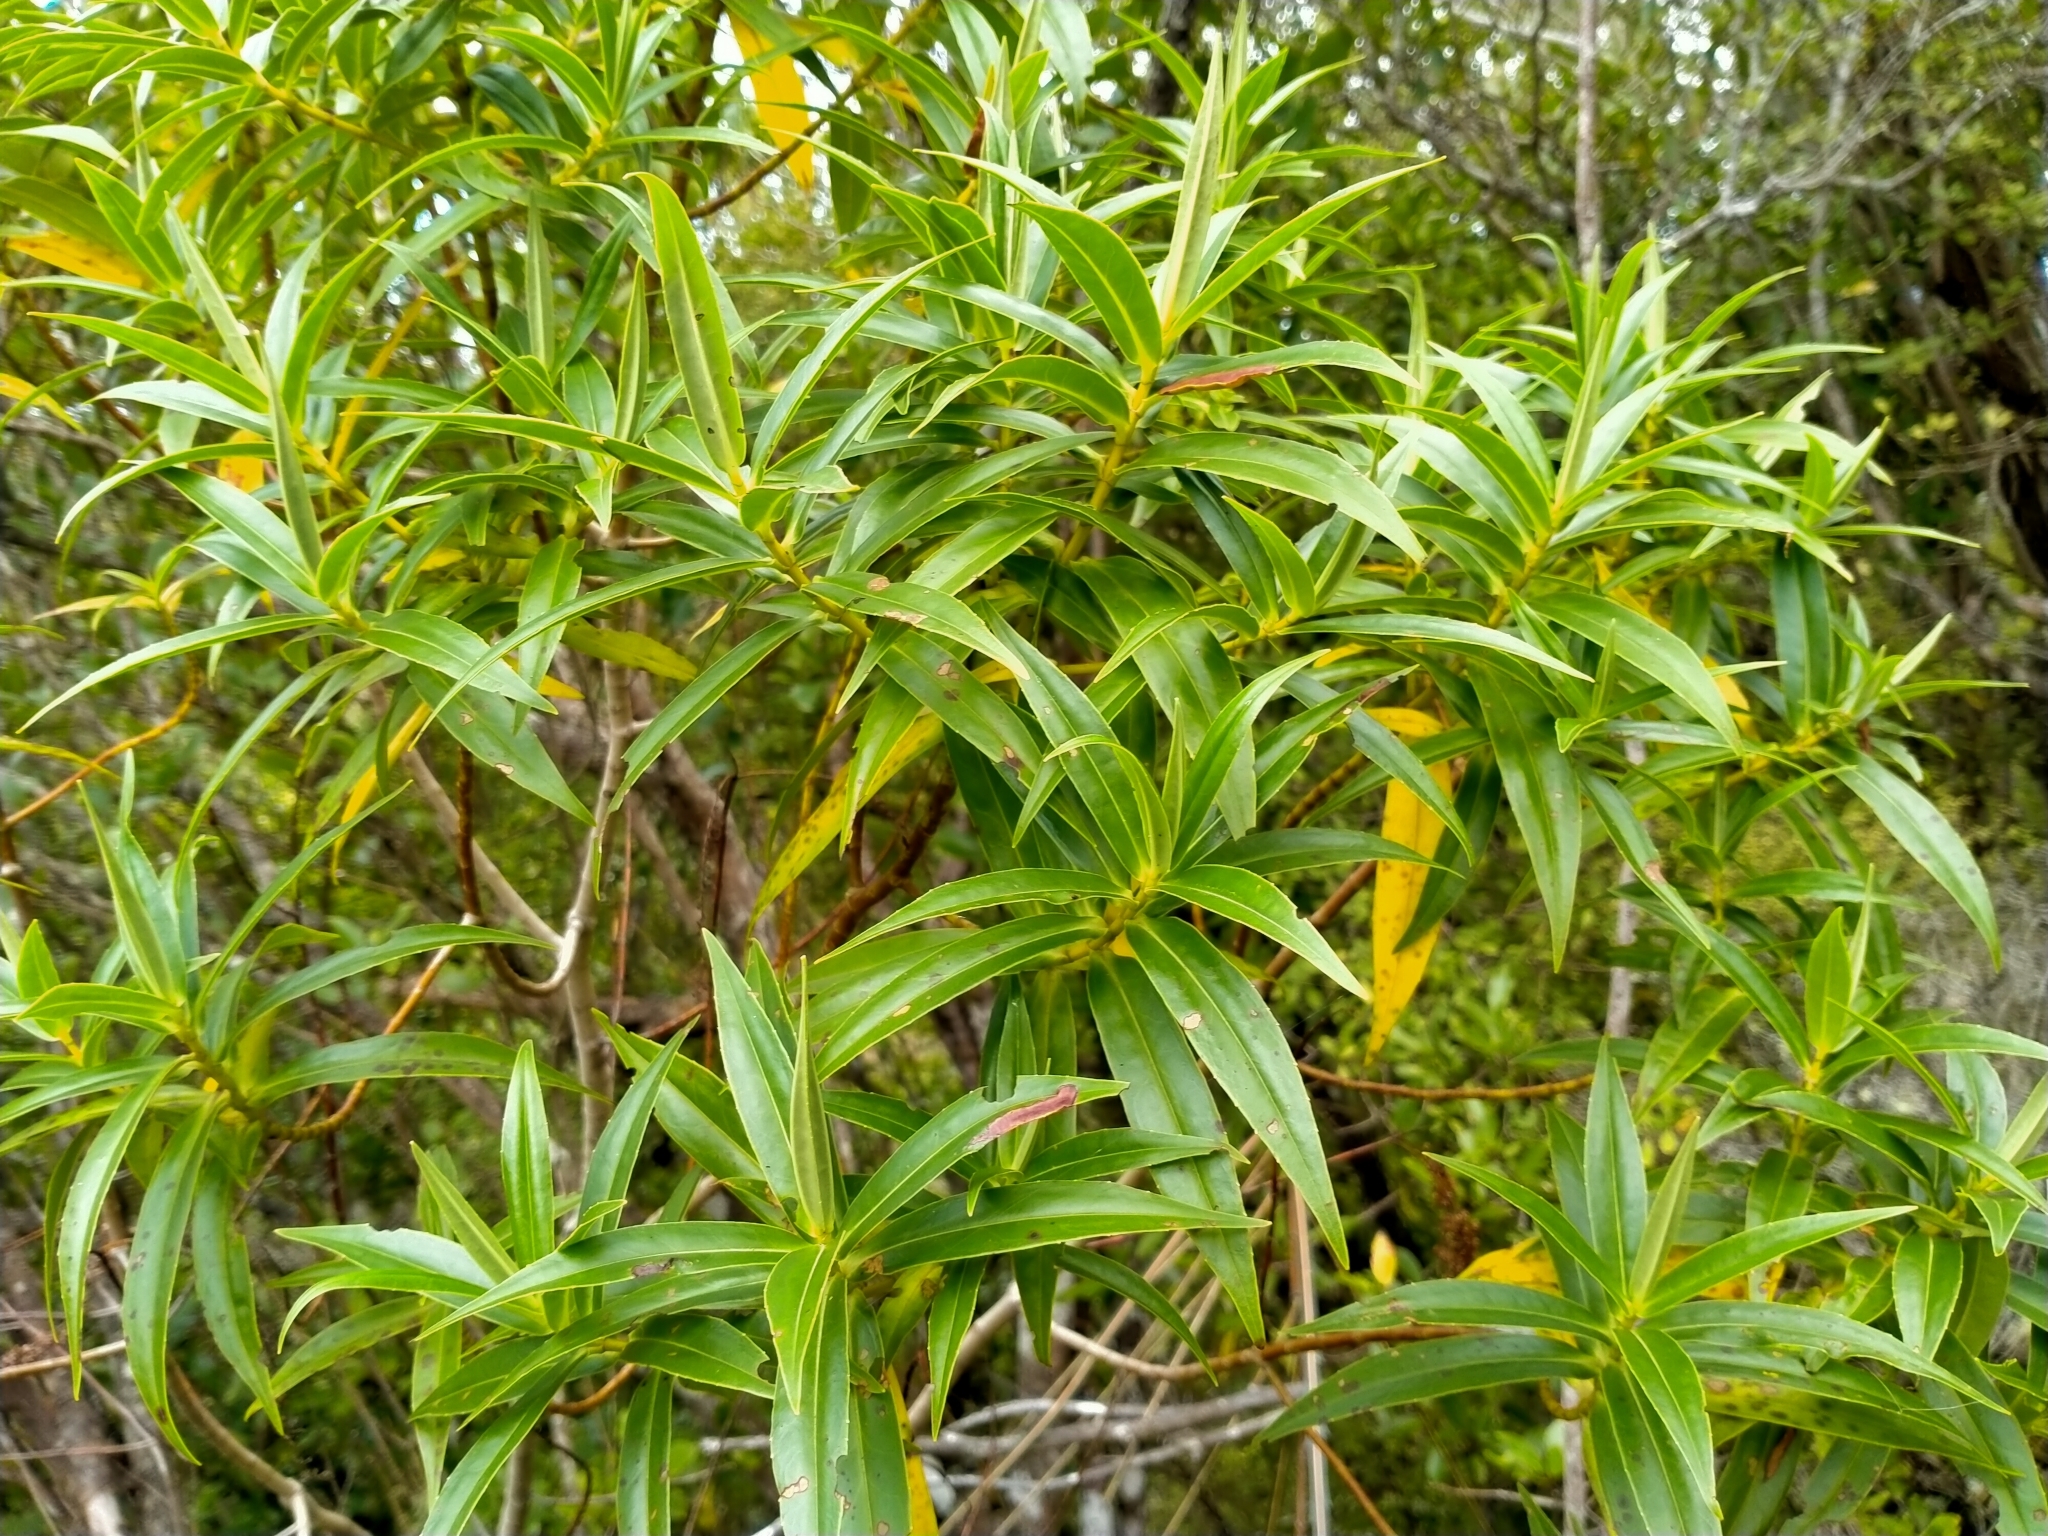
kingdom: Plantae
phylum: Tracheophyta
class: Magnoliopsida
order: Lamiales
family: Plantaginaceae
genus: Veronica
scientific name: Veronica salicifolia
